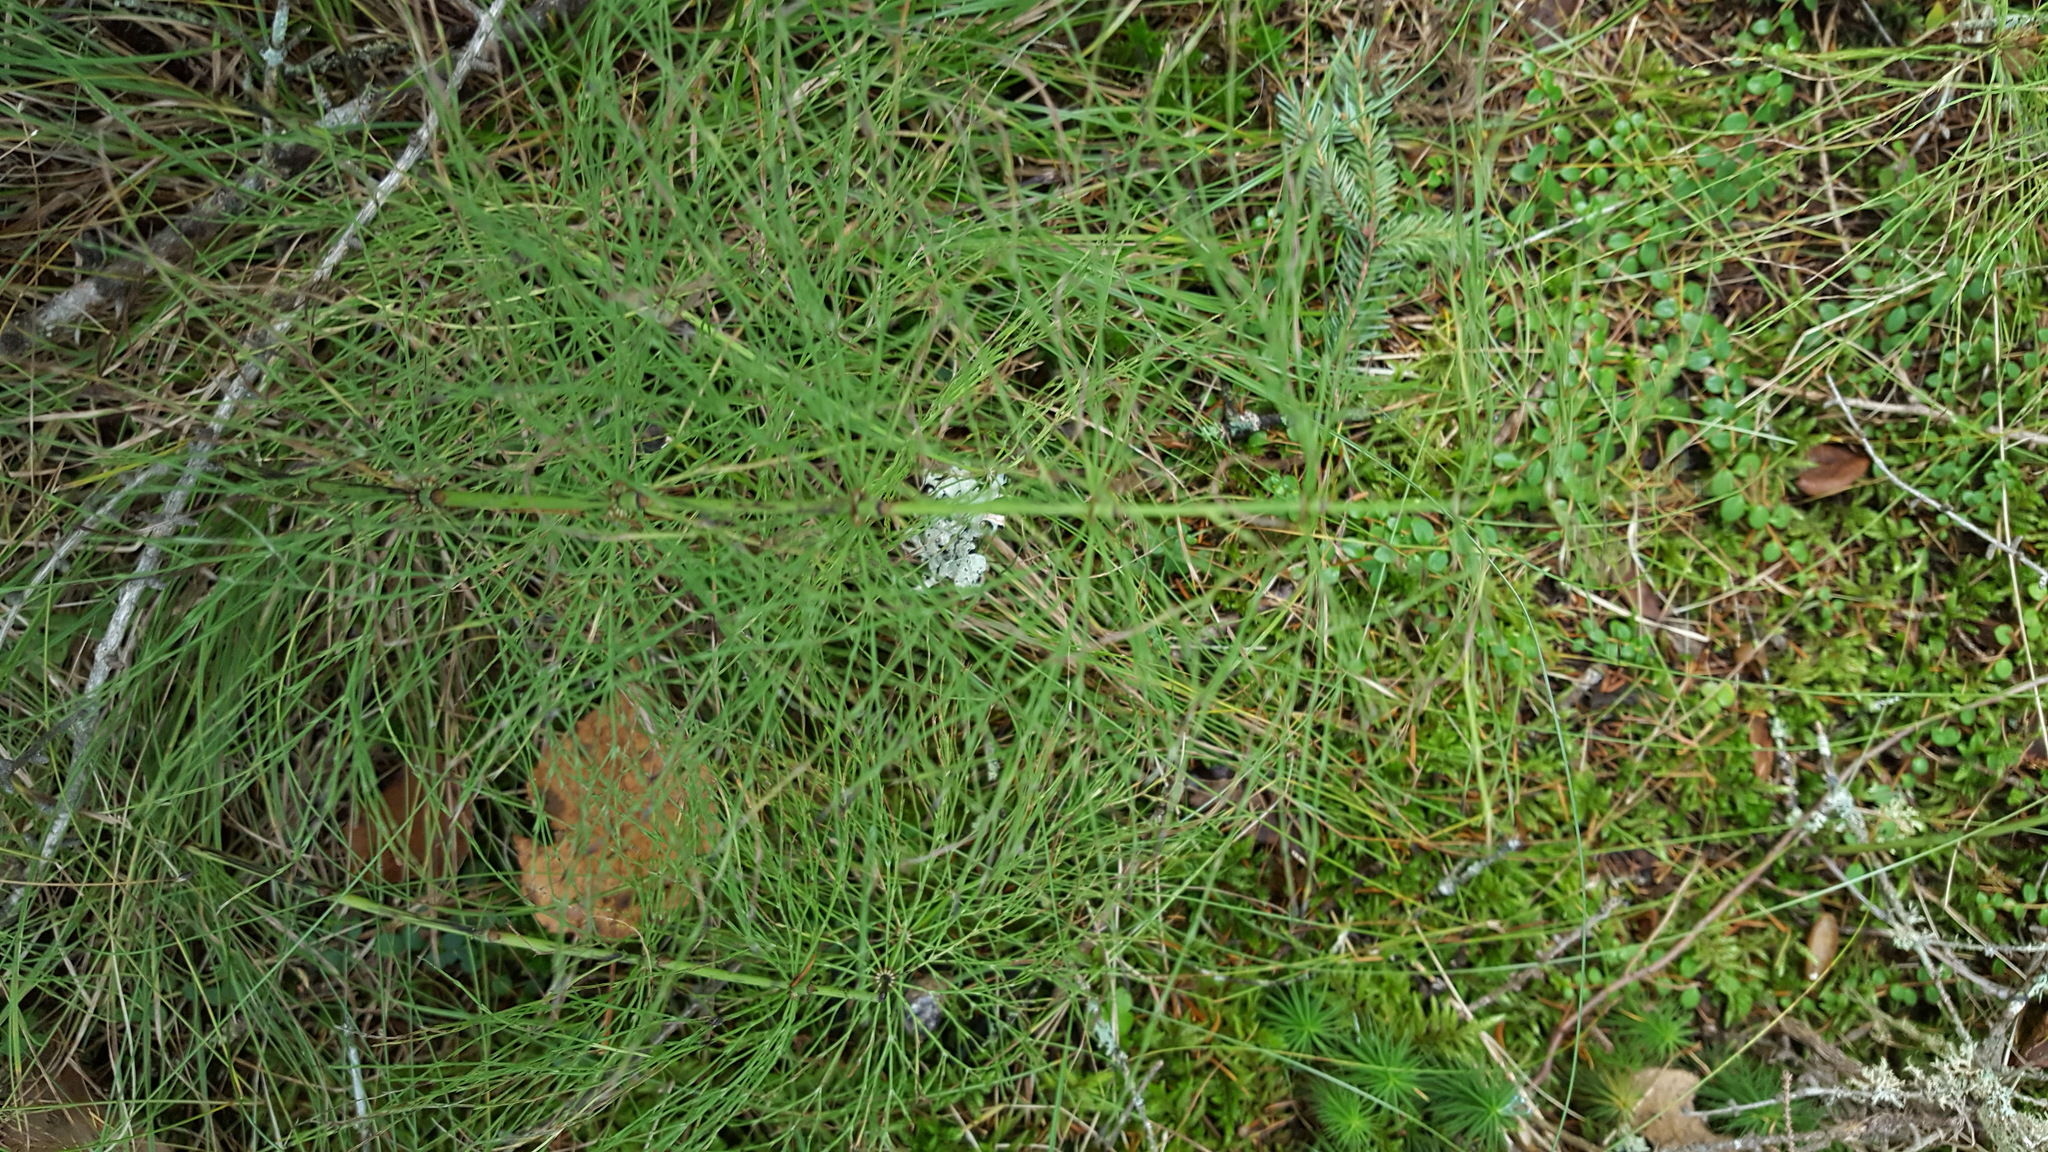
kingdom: Plantae
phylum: Tracheophyta
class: Polypodiopsida
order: Equisetales
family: Equisetaceae
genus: Equisetum
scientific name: Equisetum sylvaticum
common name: Wood horsetail
